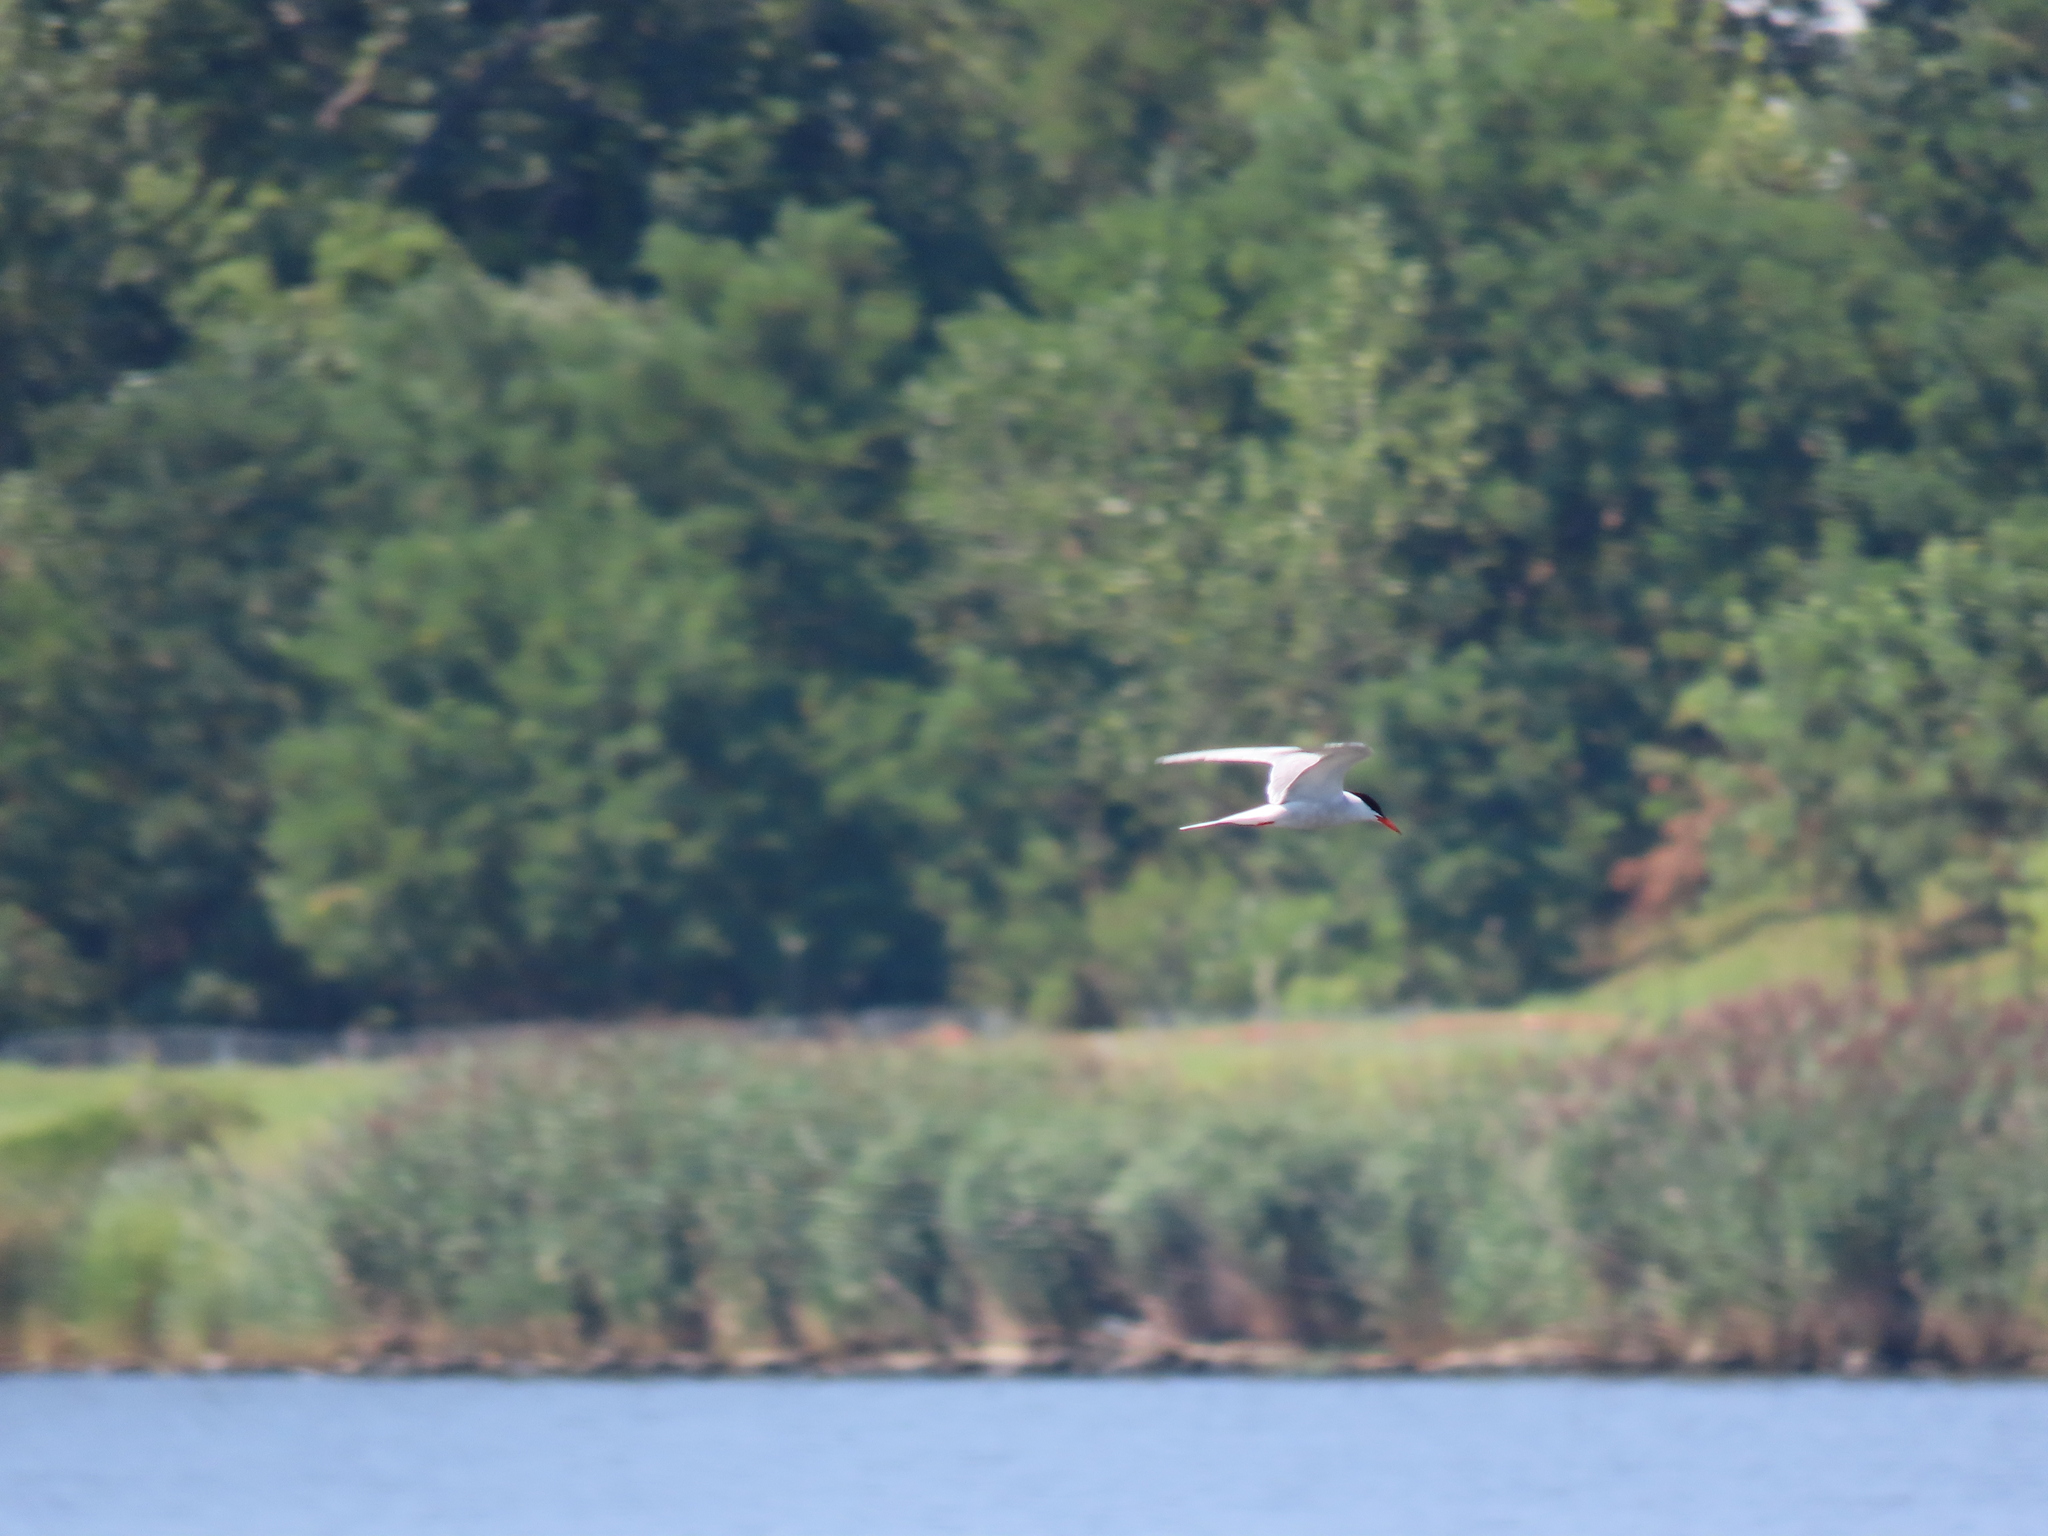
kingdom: Animalia
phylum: Chordata
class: Aves
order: Charadriiformes
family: Laridae
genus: Sterna
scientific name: Sterna hirundo
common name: Common tern
